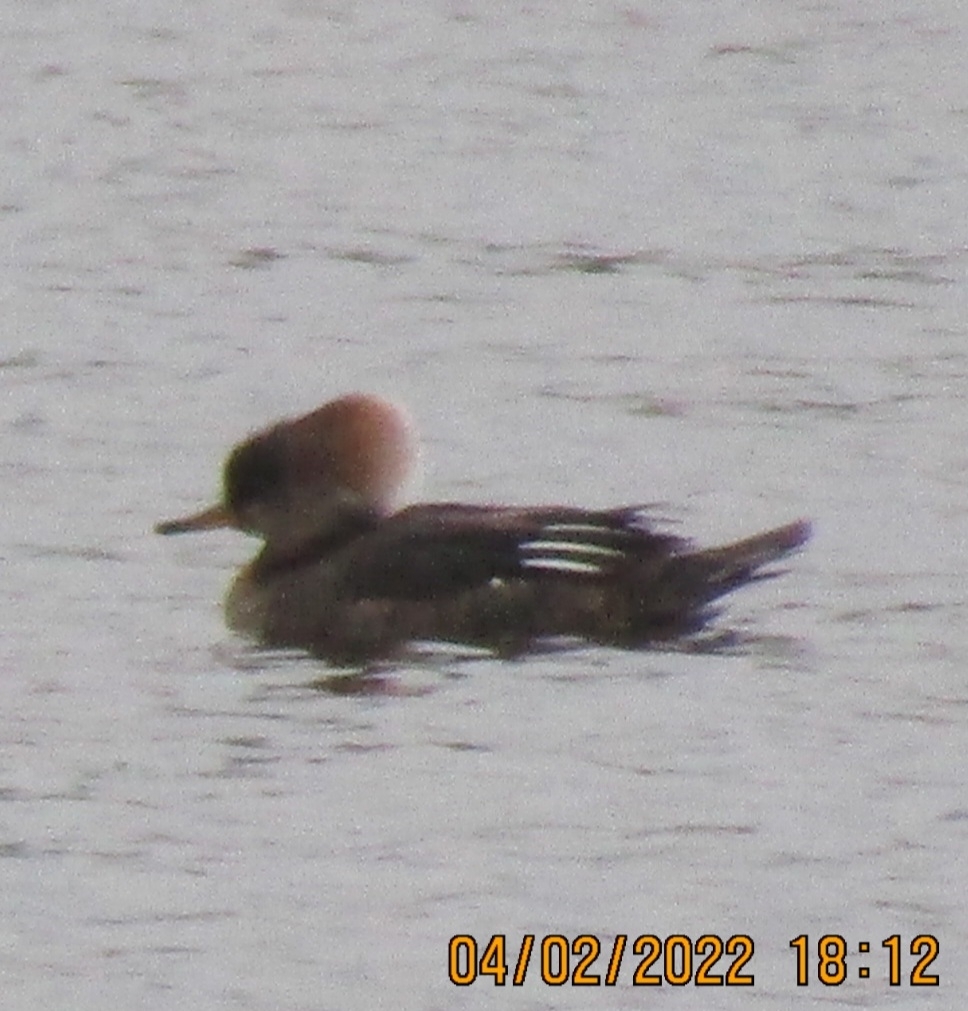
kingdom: Animalia
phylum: Chordata
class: Aves
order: Anseriformes
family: Anatidae
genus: Lophodytes
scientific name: Lophodytes cucullatus
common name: Hooded merganser
